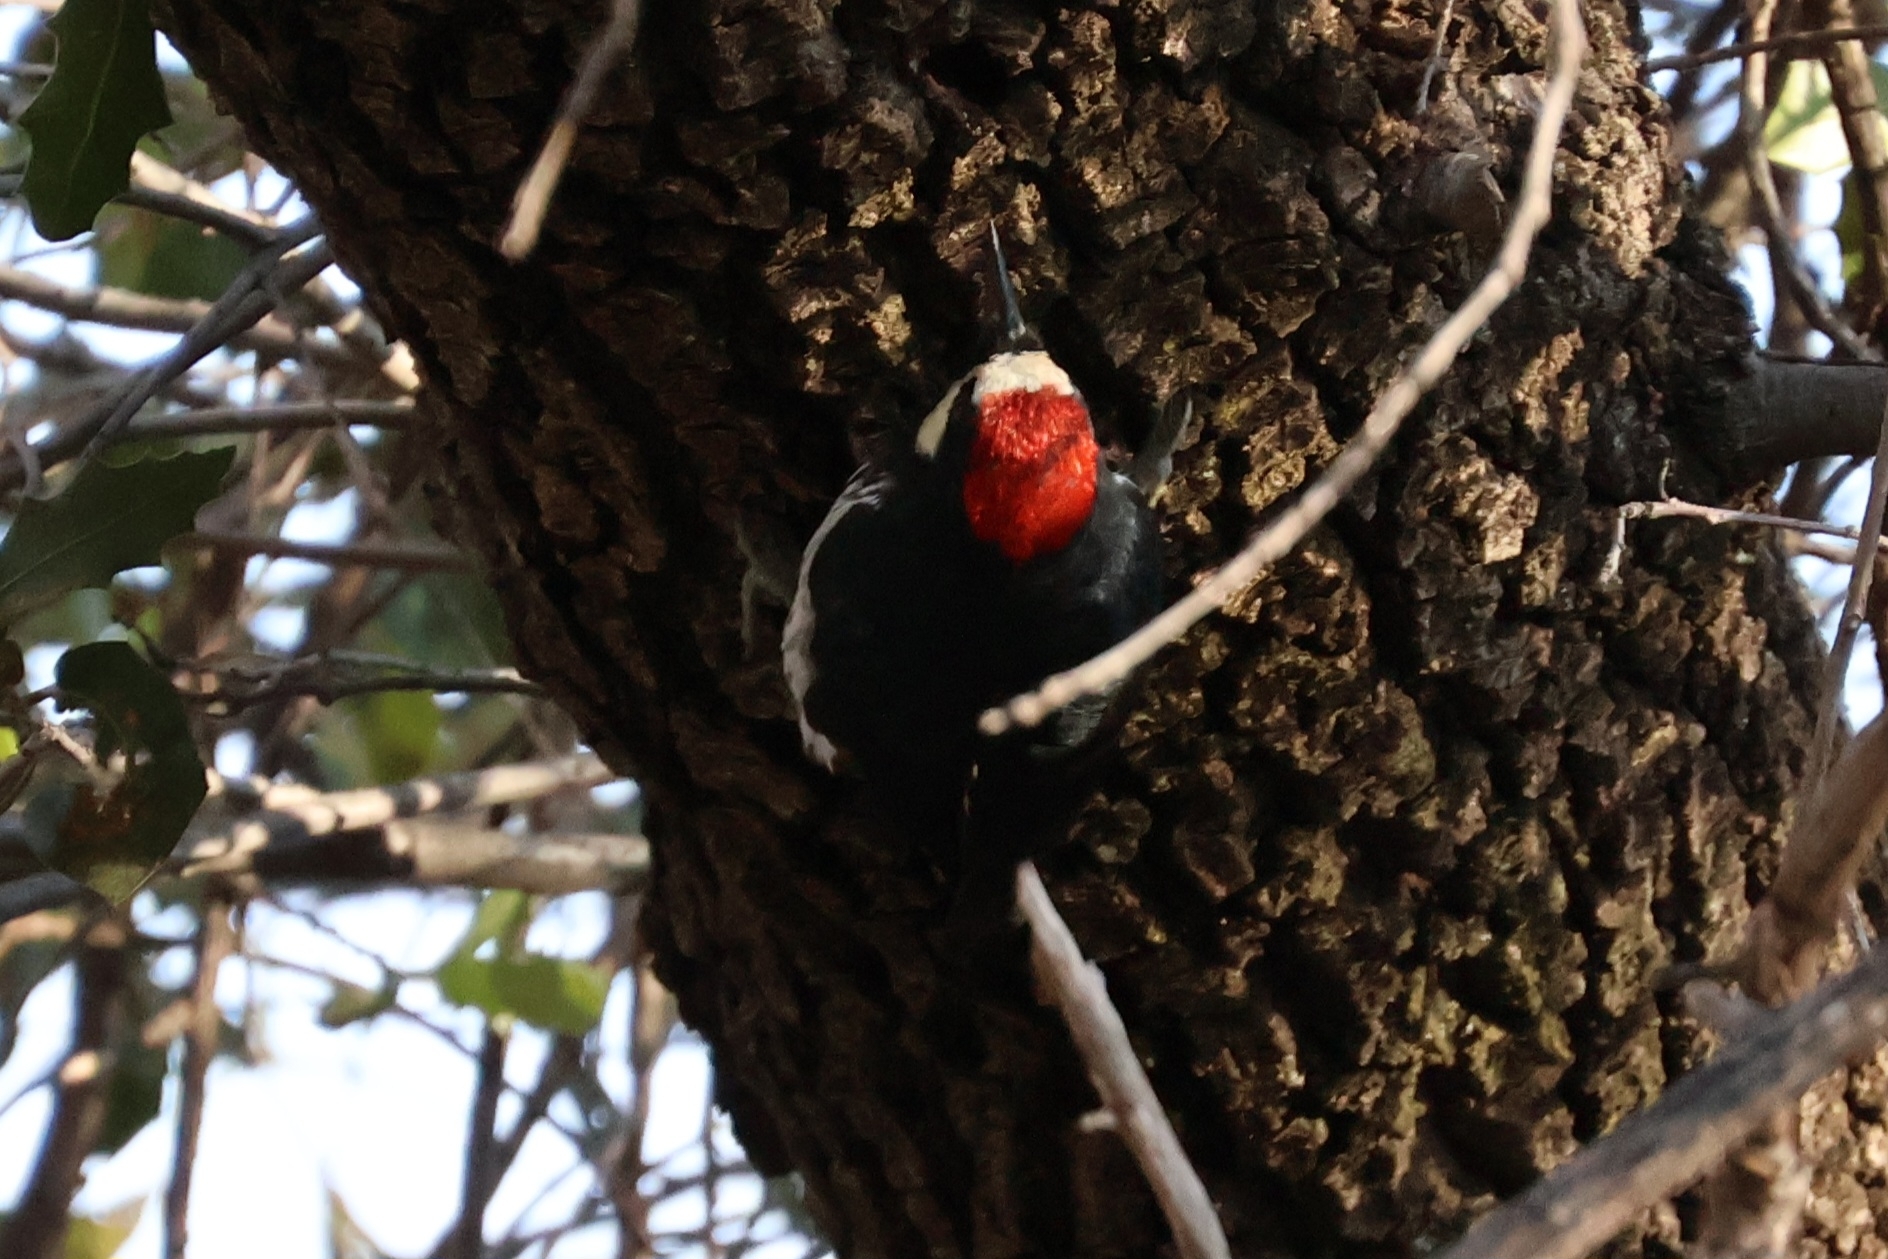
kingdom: Animalia
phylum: Chordata
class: Aves
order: Piciformes
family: Picidae
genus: Melanerpes
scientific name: Melanerpes formicivorus
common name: Acorn woodpecker
